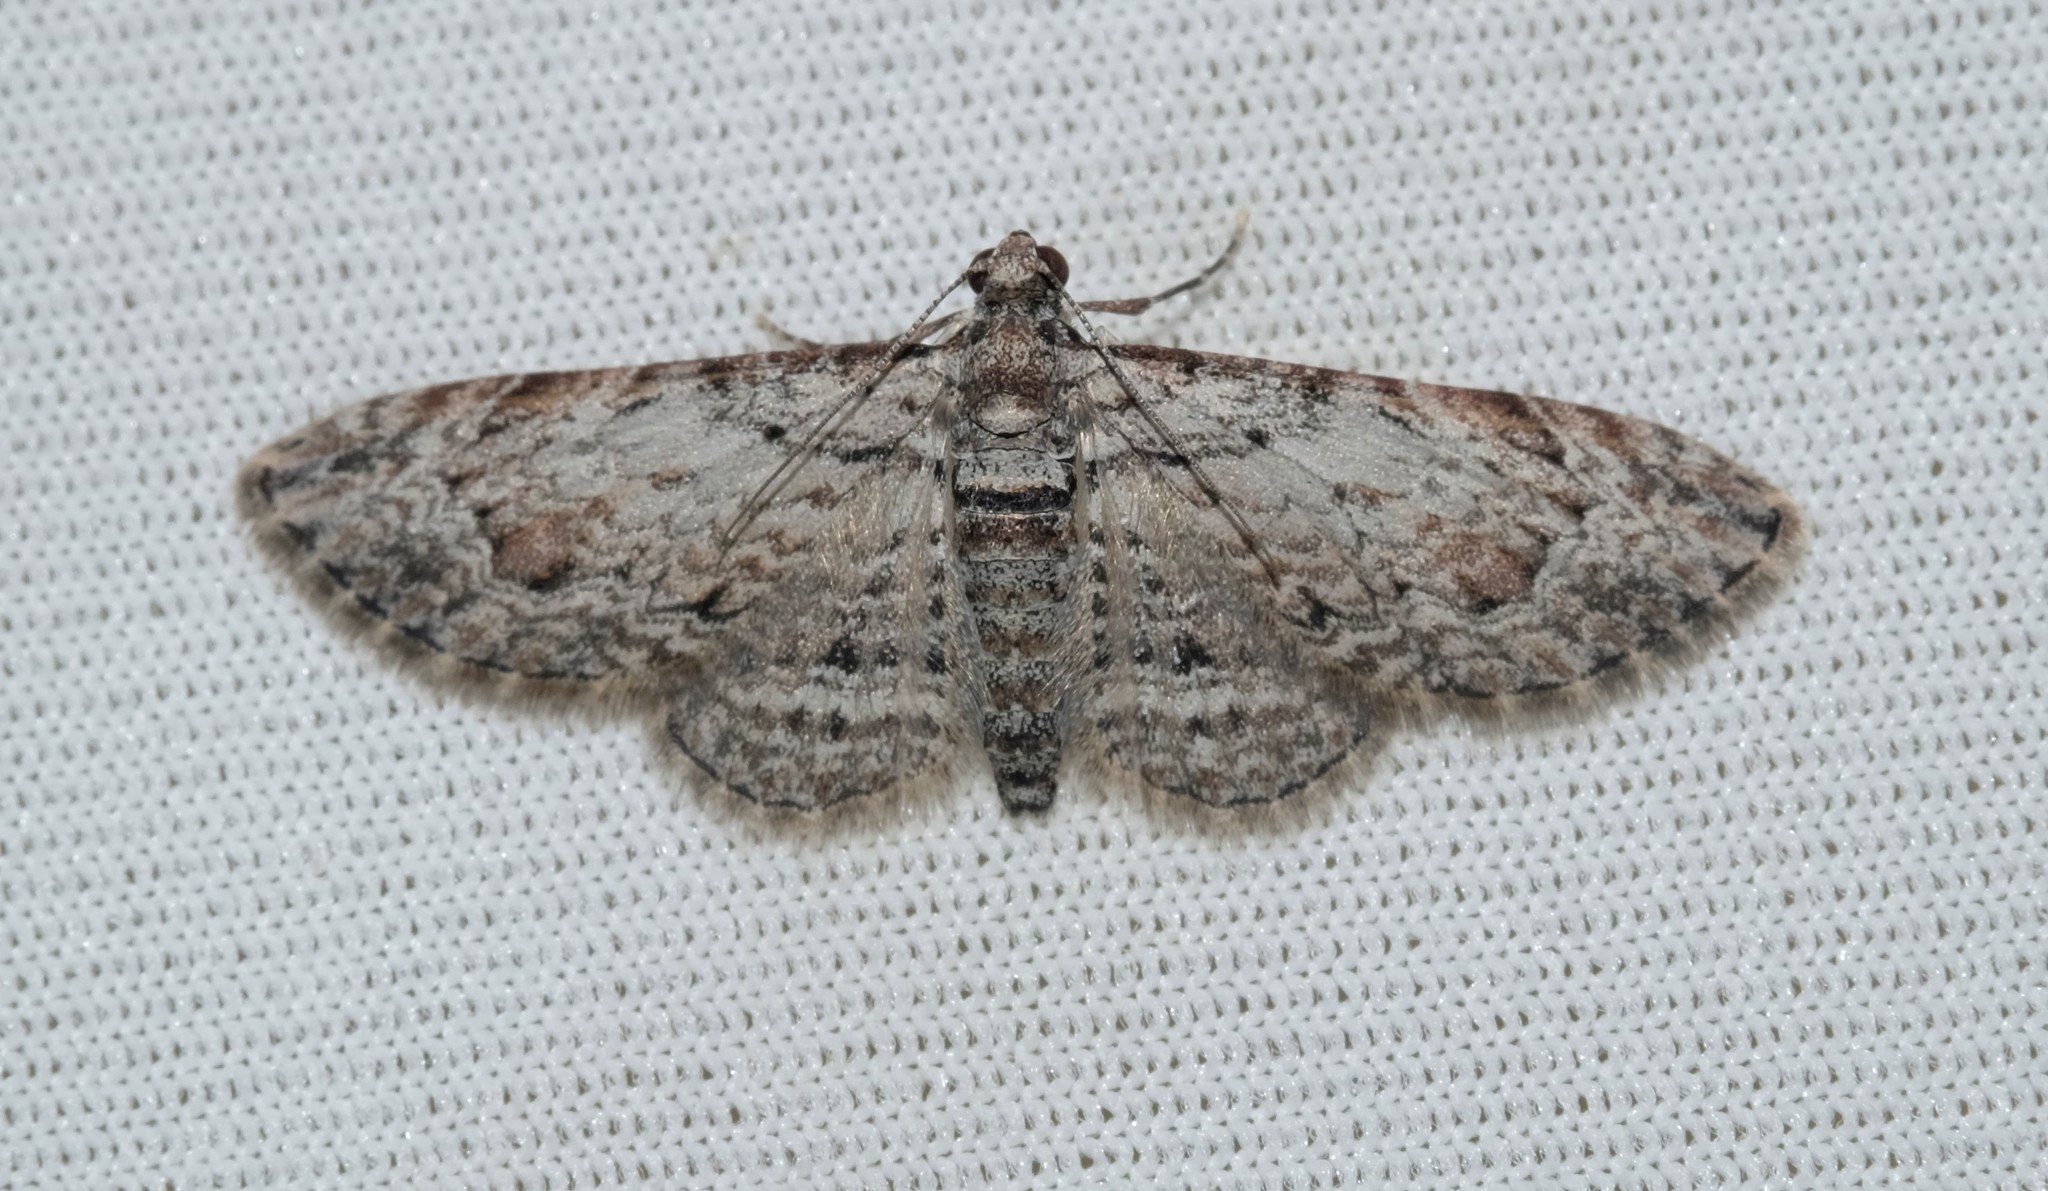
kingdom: Animalia
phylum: Arthropoda
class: Insecta
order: Lepidoptera
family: Geometridae
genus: Chloroclystis
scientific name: Chloroclystis insigillata
